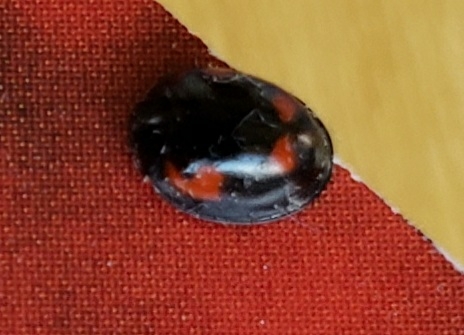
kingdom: Animalia
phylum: Arthropoda
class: Insecta
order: Coleoptera
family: Coccinellidae
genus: Brumus
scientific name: Brumus quadripustulatus
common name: Ladybird beetle
